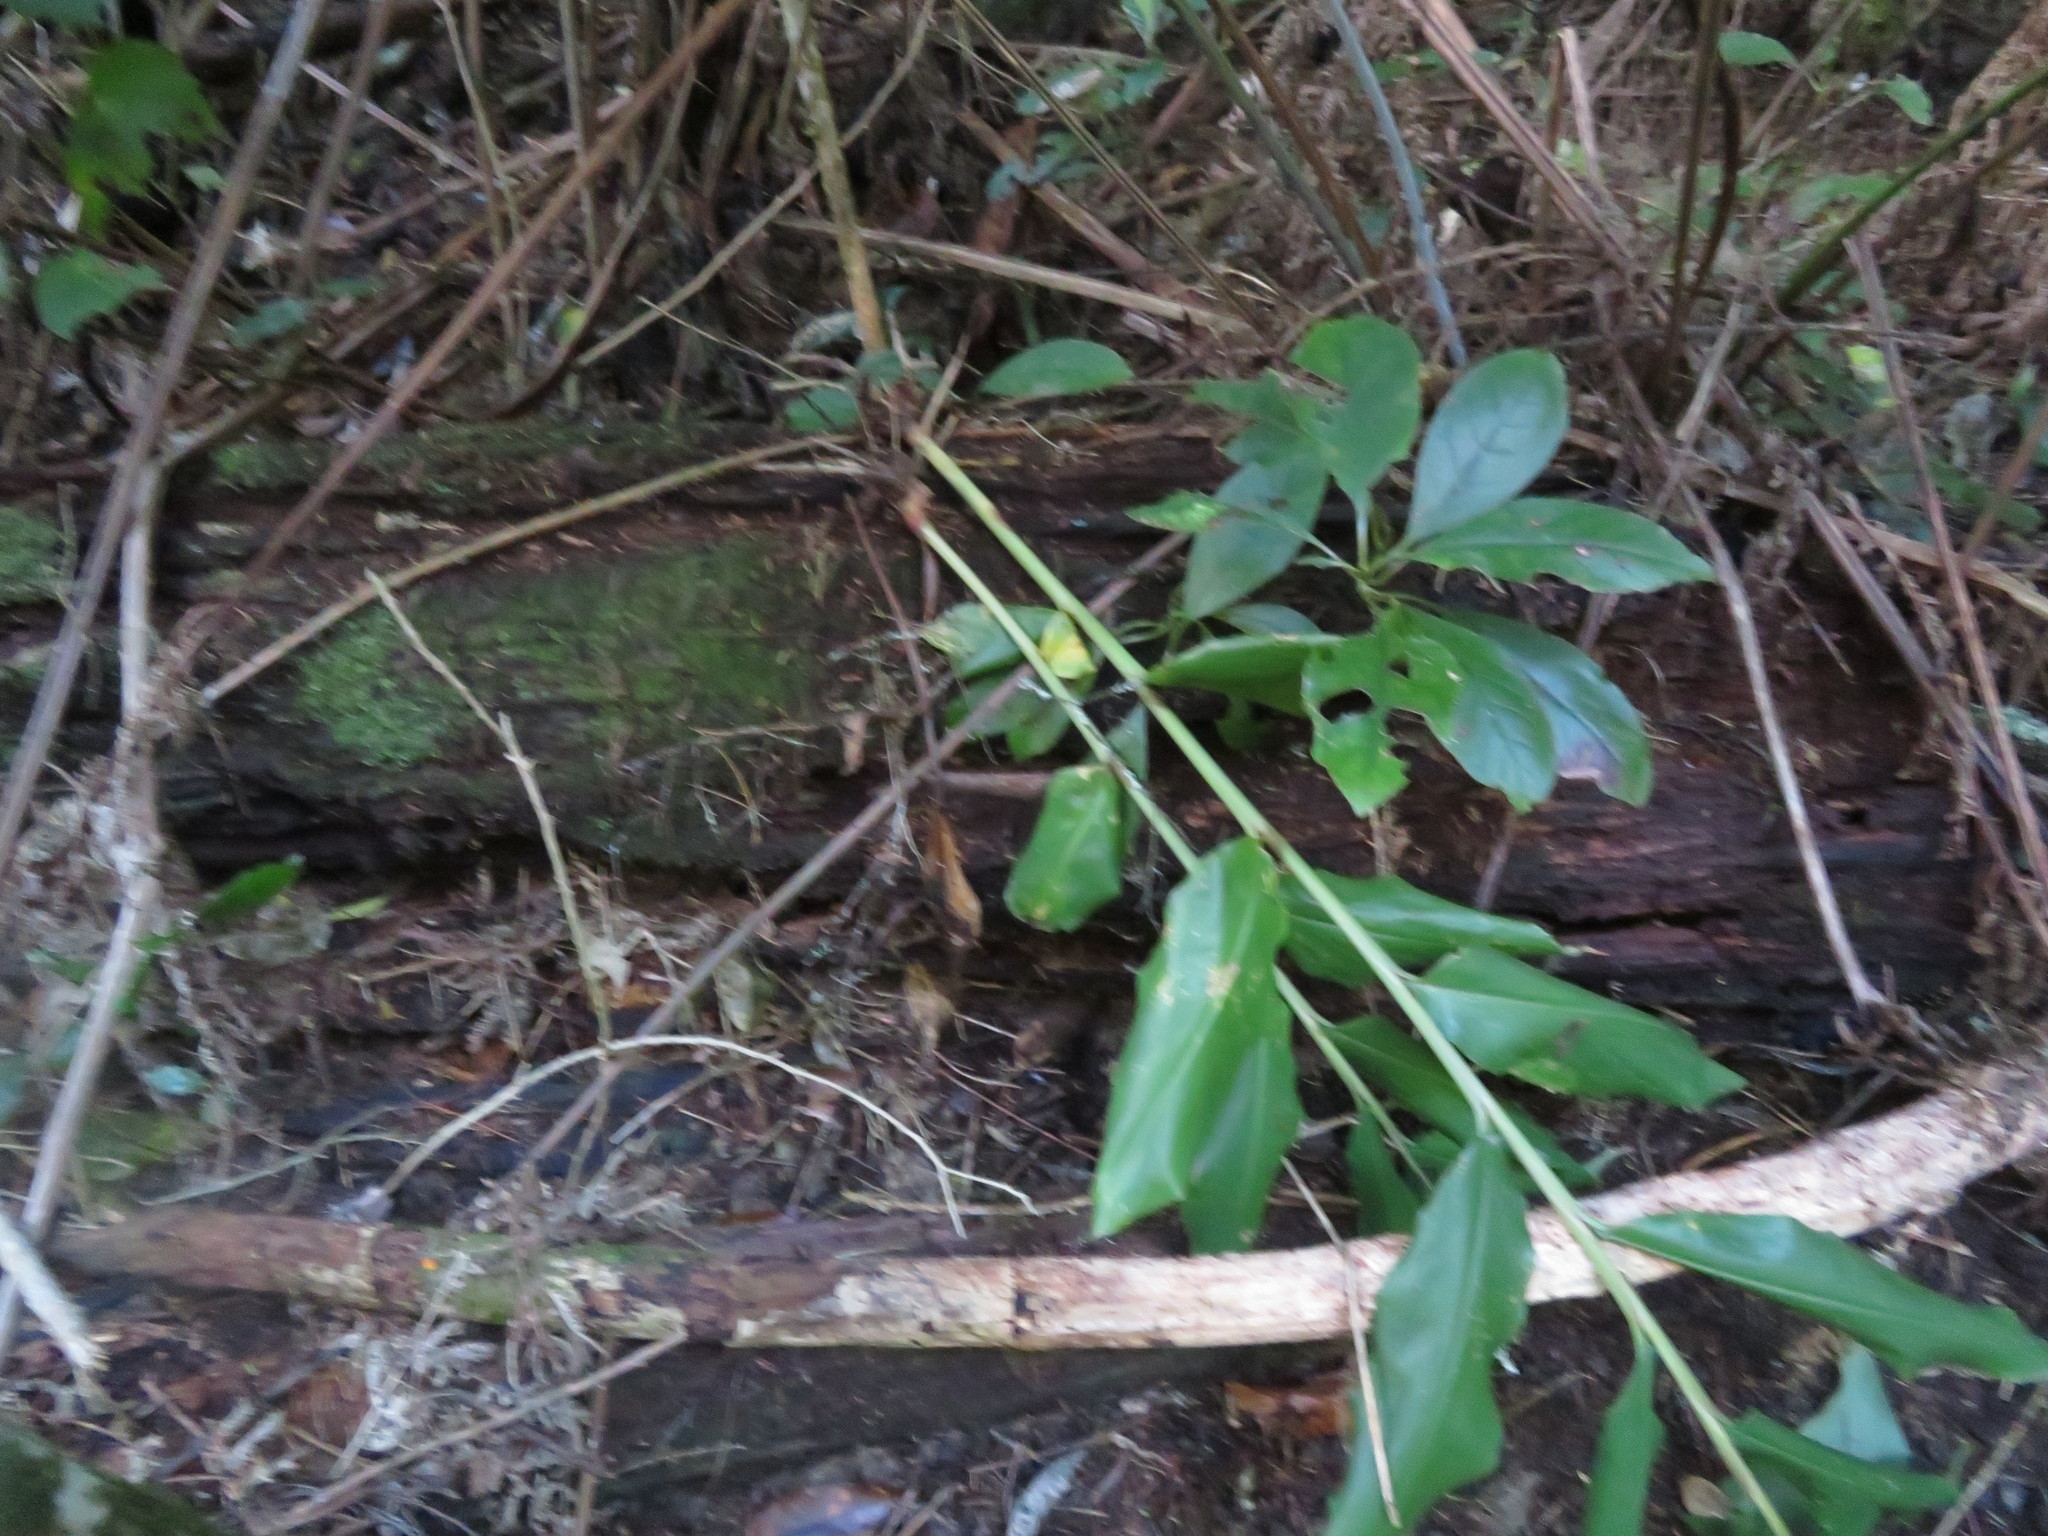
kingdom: Plantae
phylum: Tracheophyta
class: Liliopsida
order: Zingiberales
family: Zingiberaceae
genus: Hedychium
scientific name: Hedychium gardnerianum
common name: Himalayan ginger
